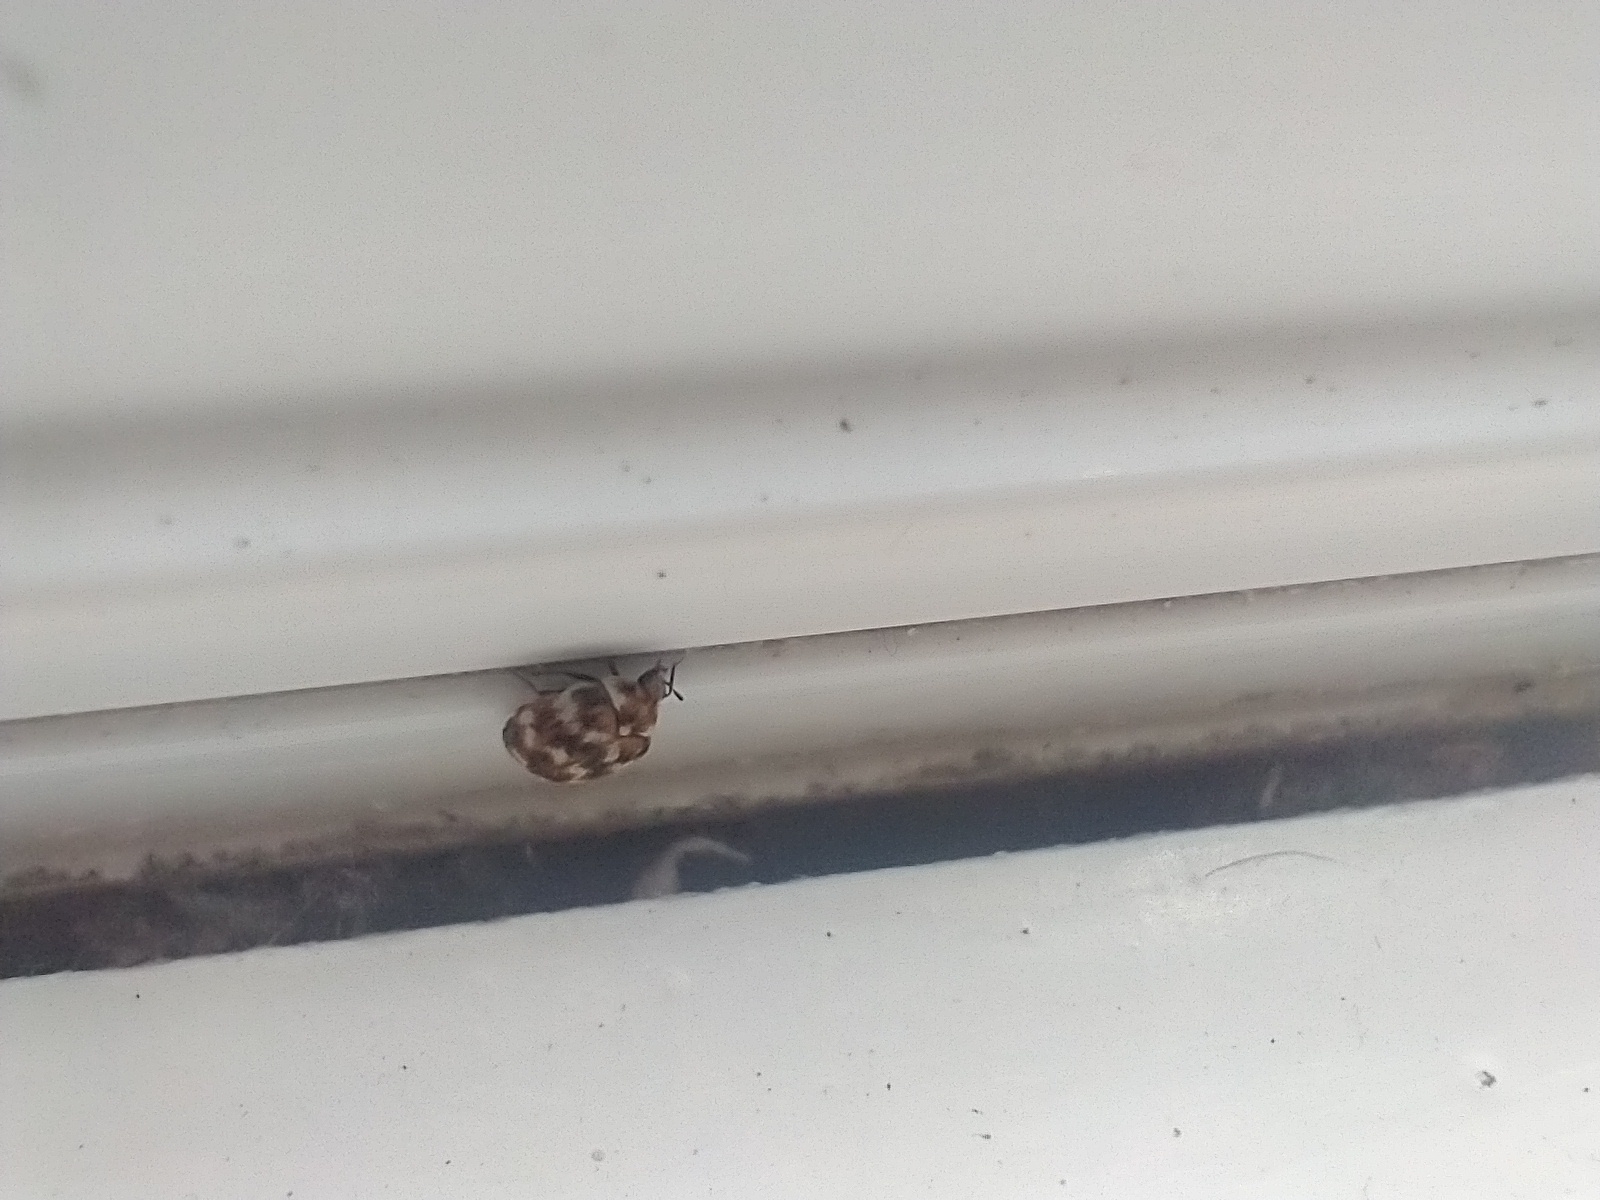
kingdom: Animalia
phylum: Arthropoda
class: Insecta
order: Coleoptera
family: Dermestidae
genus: Anthrenus
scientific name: Anthrenus verbasci
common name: Varied carpet beetle
